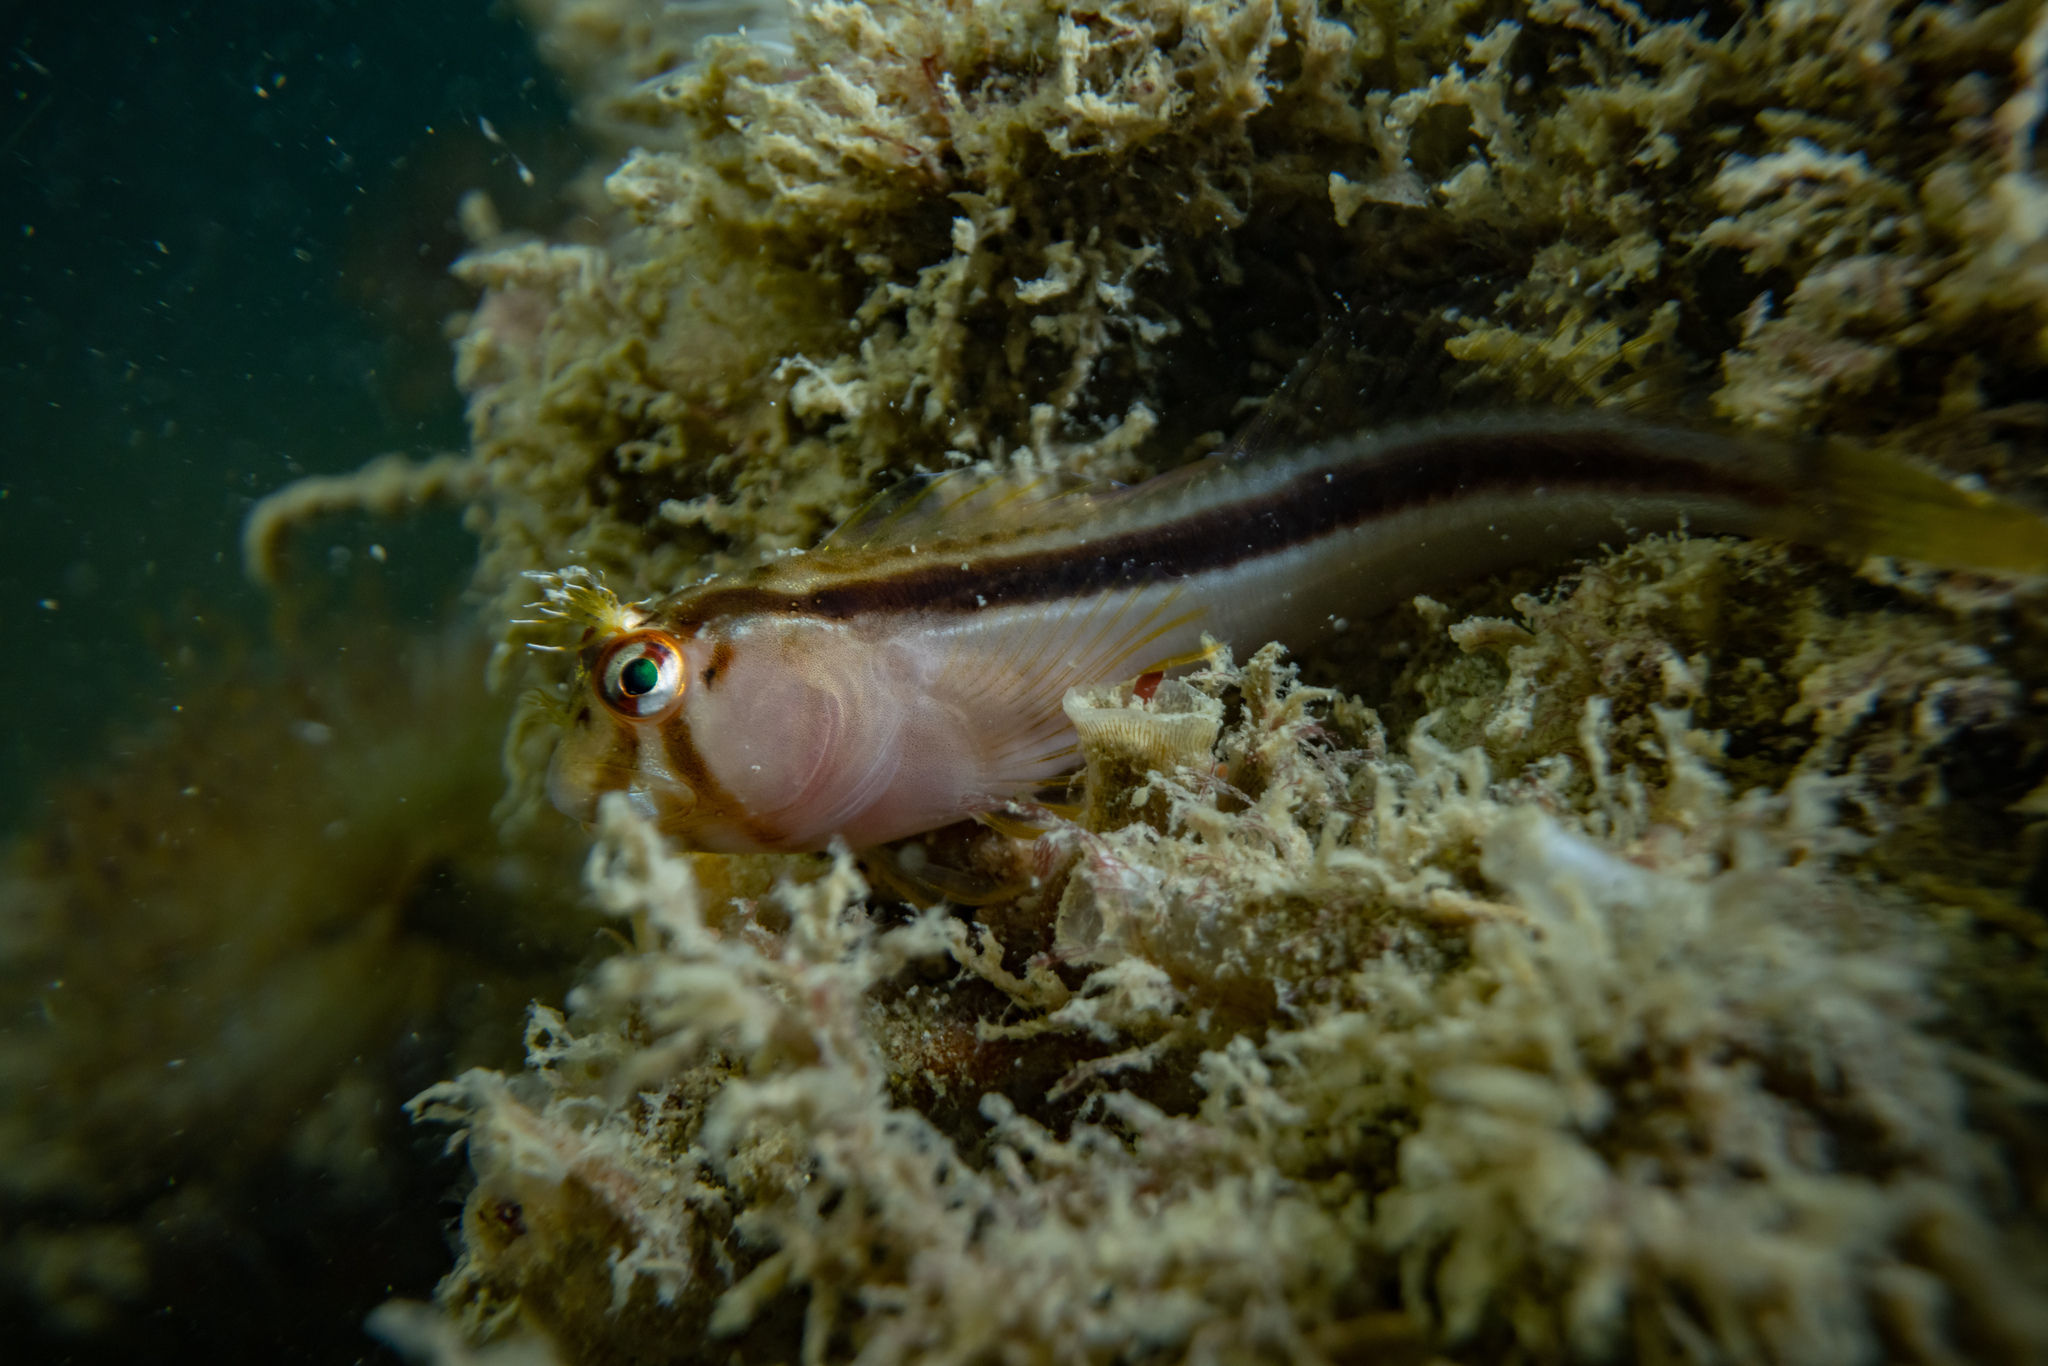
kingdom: Animalia
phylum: Chordata
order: Perciformes
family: Blenniidae
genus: Parablennius
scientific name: Parablennius laticlavius
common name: Crested blenny
